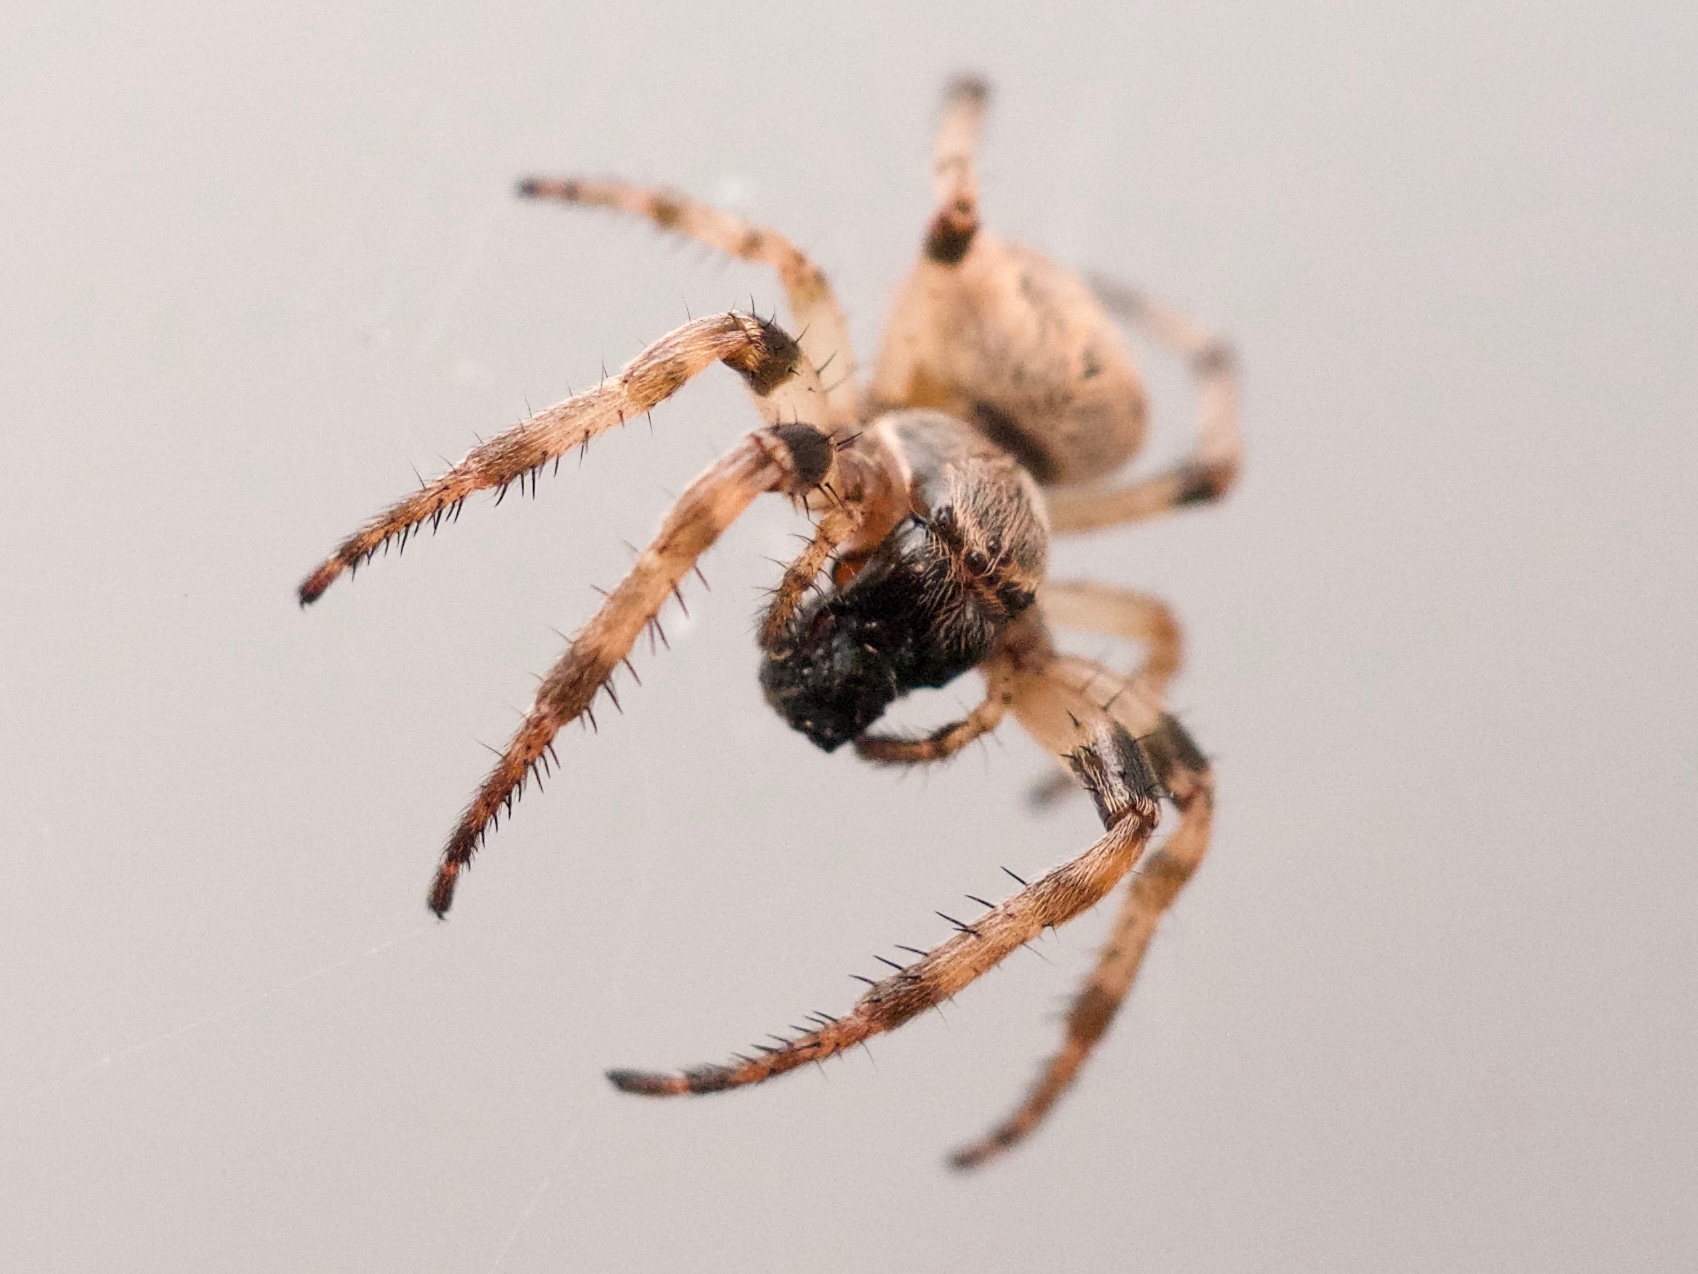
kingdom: Animalia
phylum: Arthropoda
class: Arachnida
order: Araneae
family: Araneidae
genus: Larinioides
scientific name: Larinioides cornutus
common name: Furrow orbweaver
